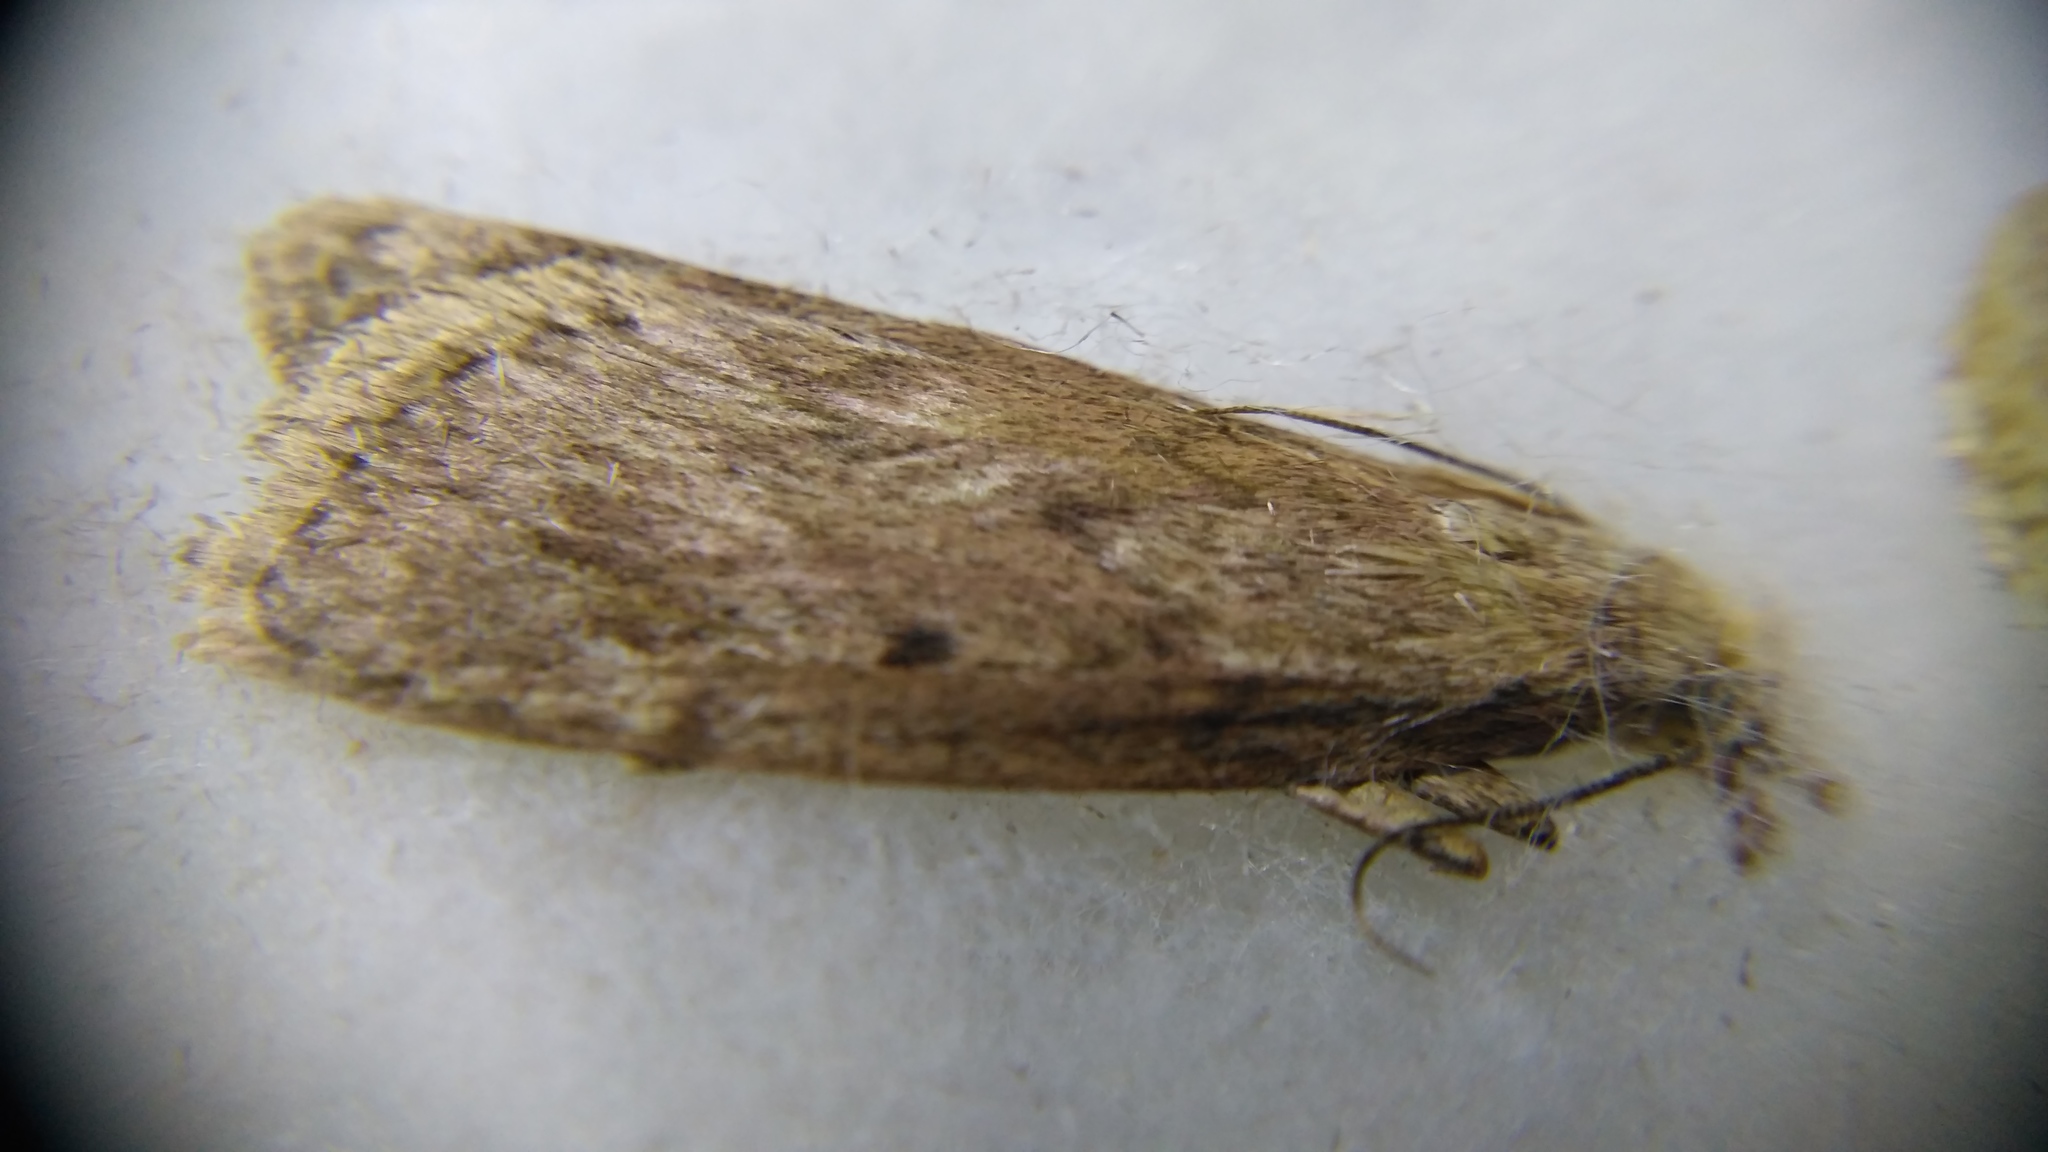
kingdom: Animalia
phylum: Arthropoda
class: Insecta
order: Lepidoptera
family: Pyralidae
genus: Aphomia
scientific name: Aphomia sociella
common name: Bee moth
